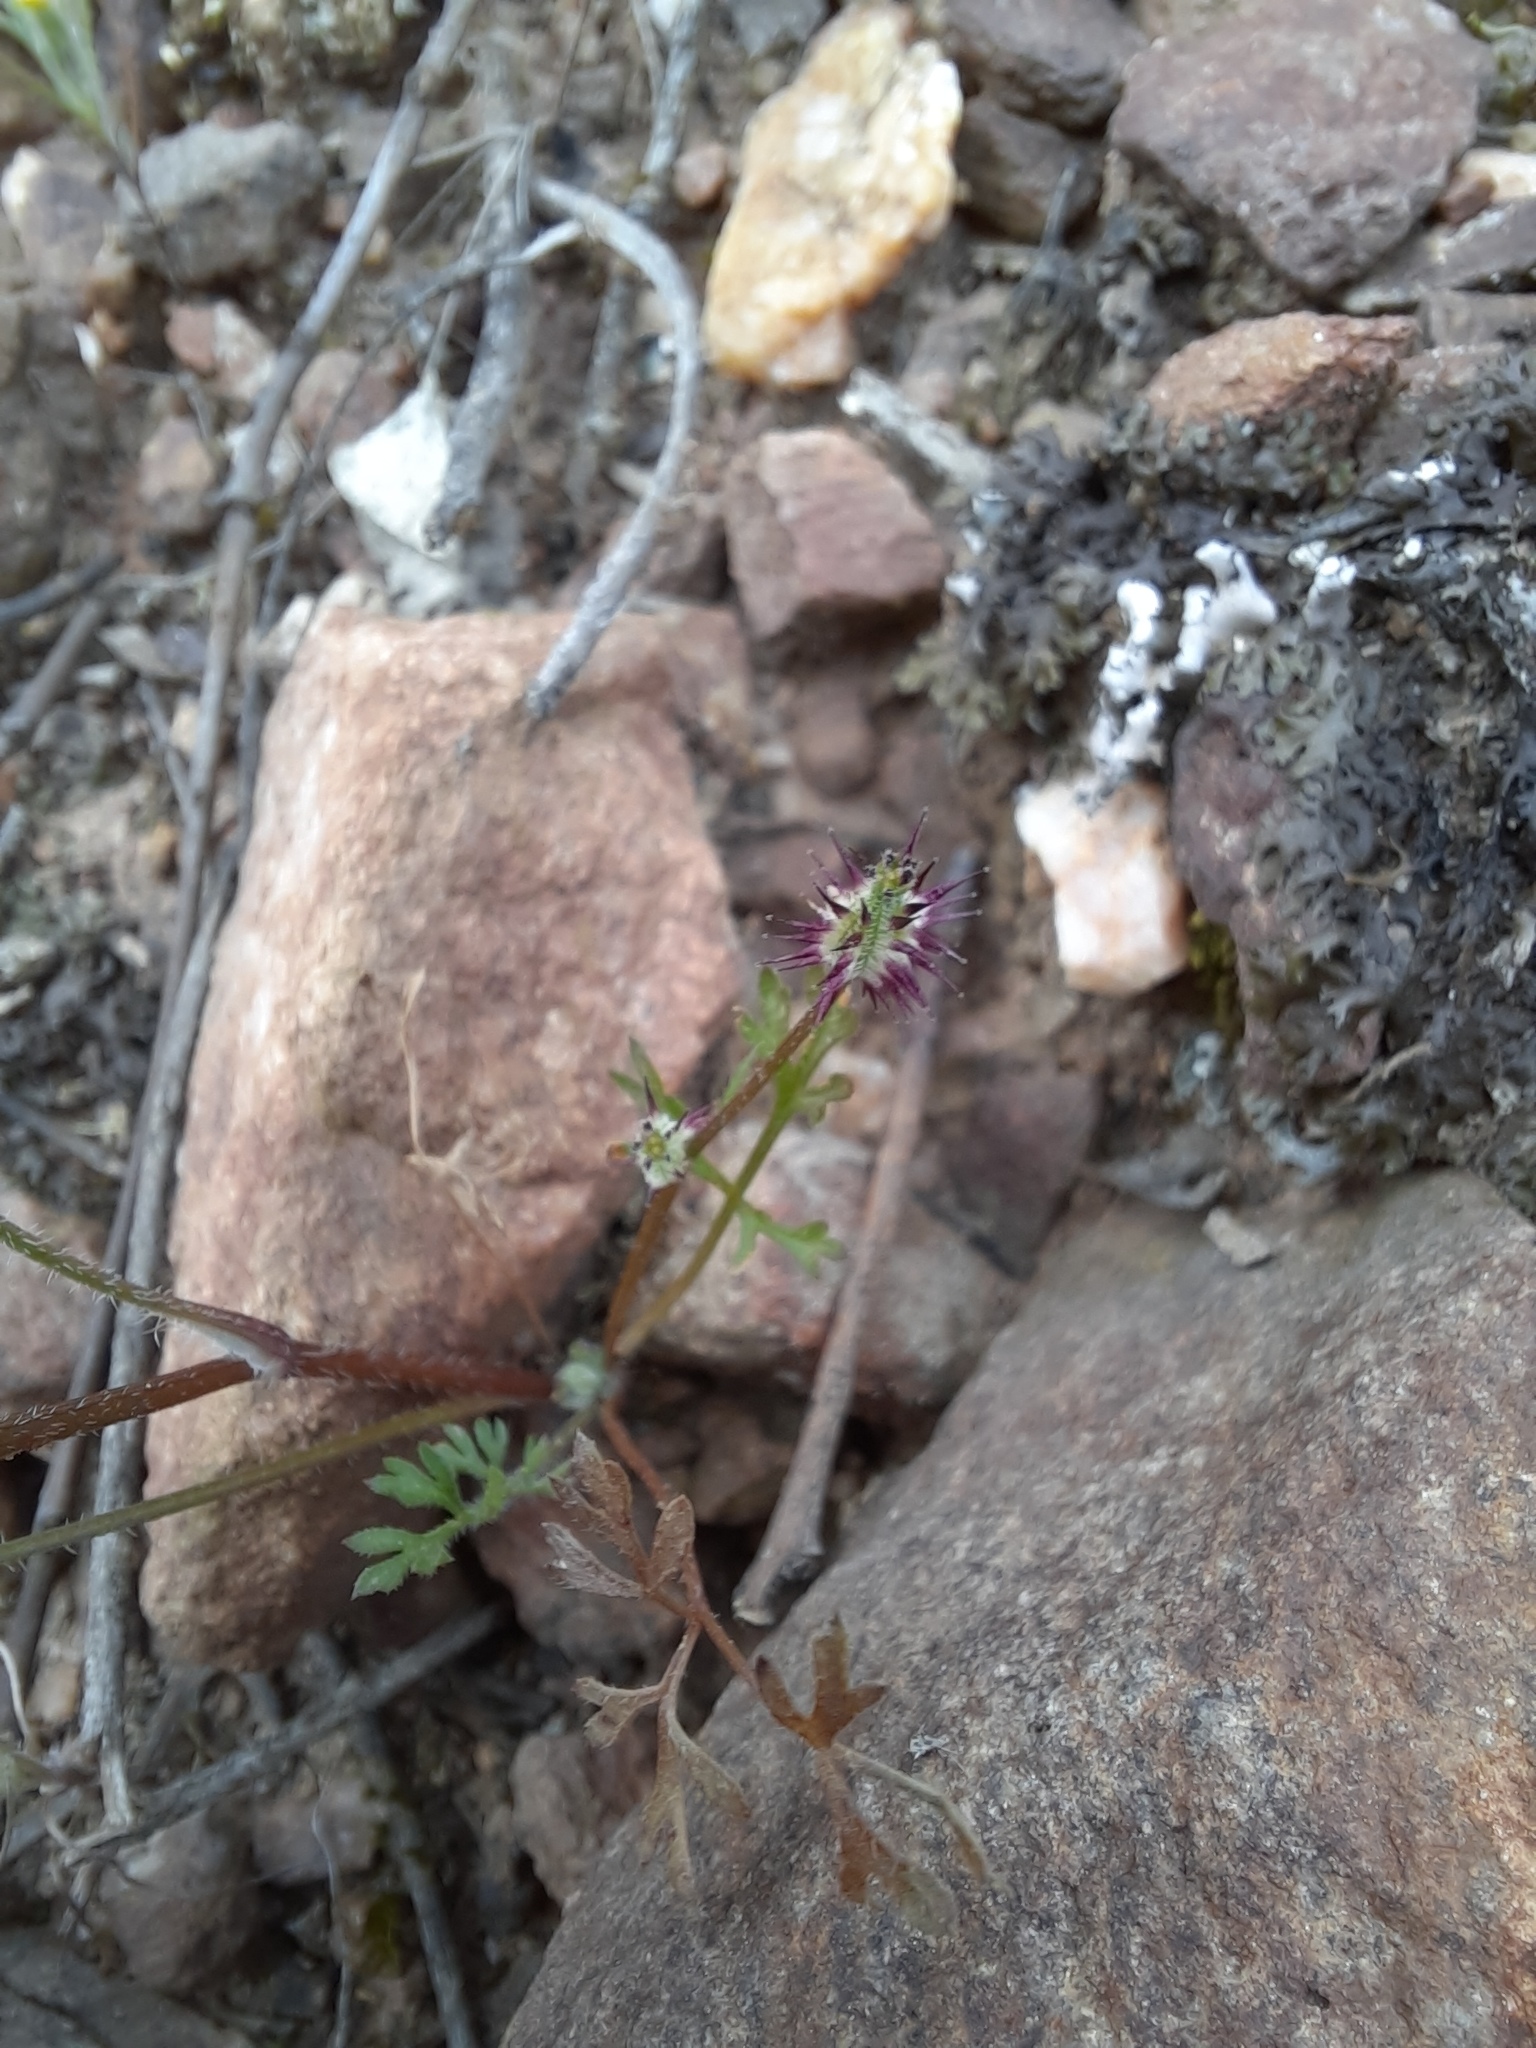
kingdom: Plantae
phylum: Tracheophyta
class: Magnoliopsida
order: Apiales
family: Apiaceae
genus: Daucus
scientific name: Daucus glochidiatus
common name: Australian carrot
